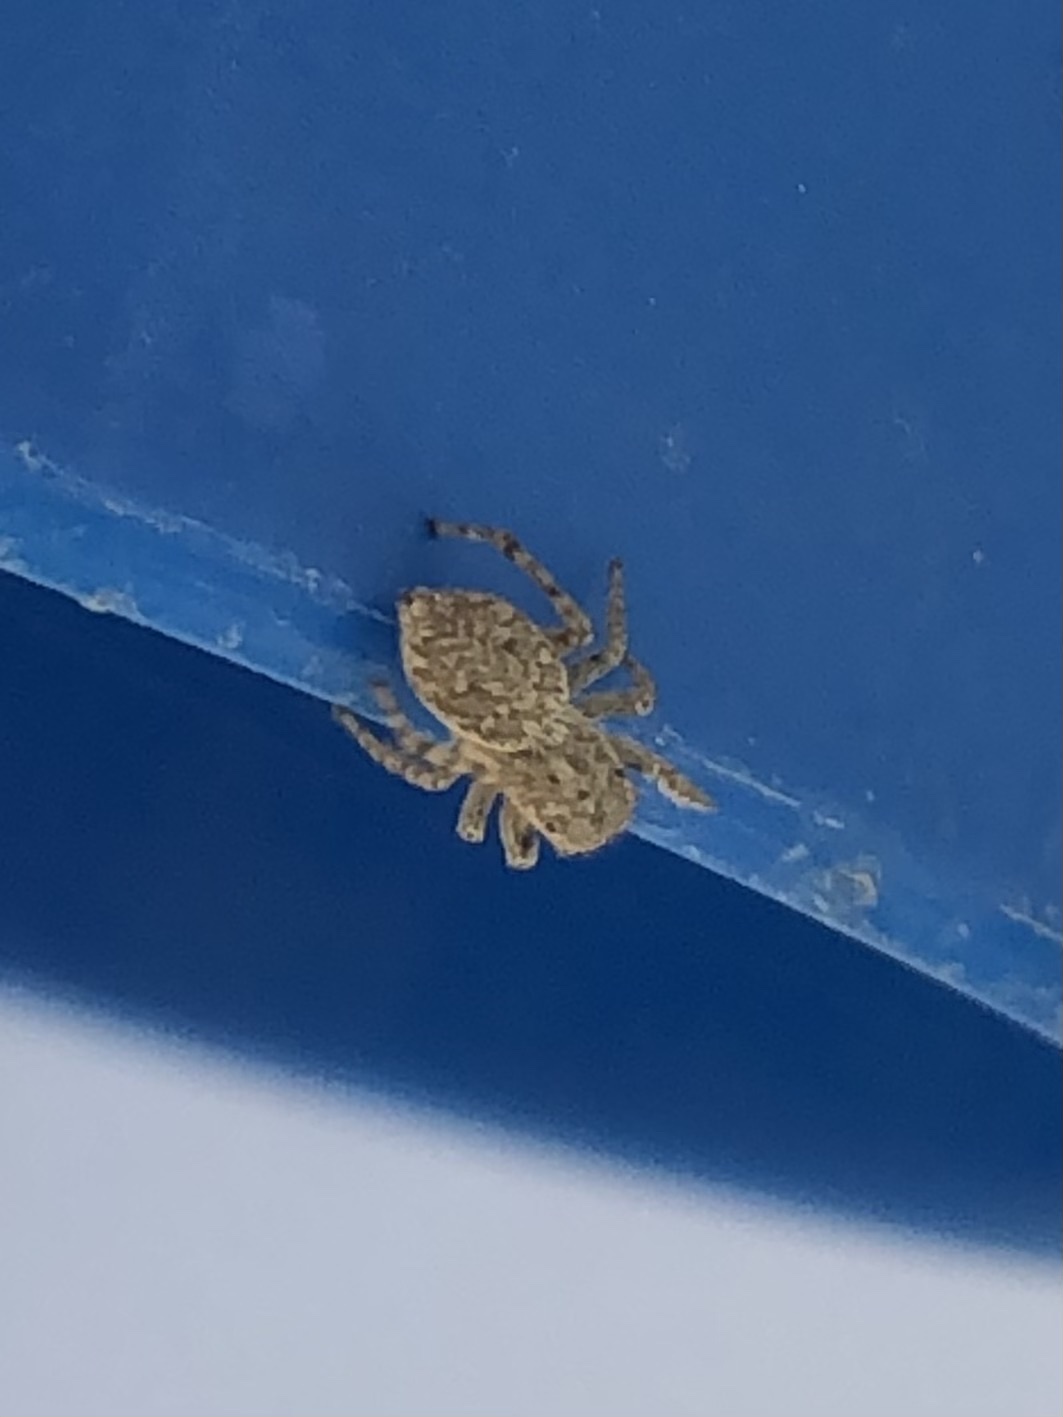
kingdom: Animalia
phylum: Arthropoda
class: Arachnida
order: Araneae
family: Salticidae
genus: Attulus
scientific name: Attulus ammophilus
